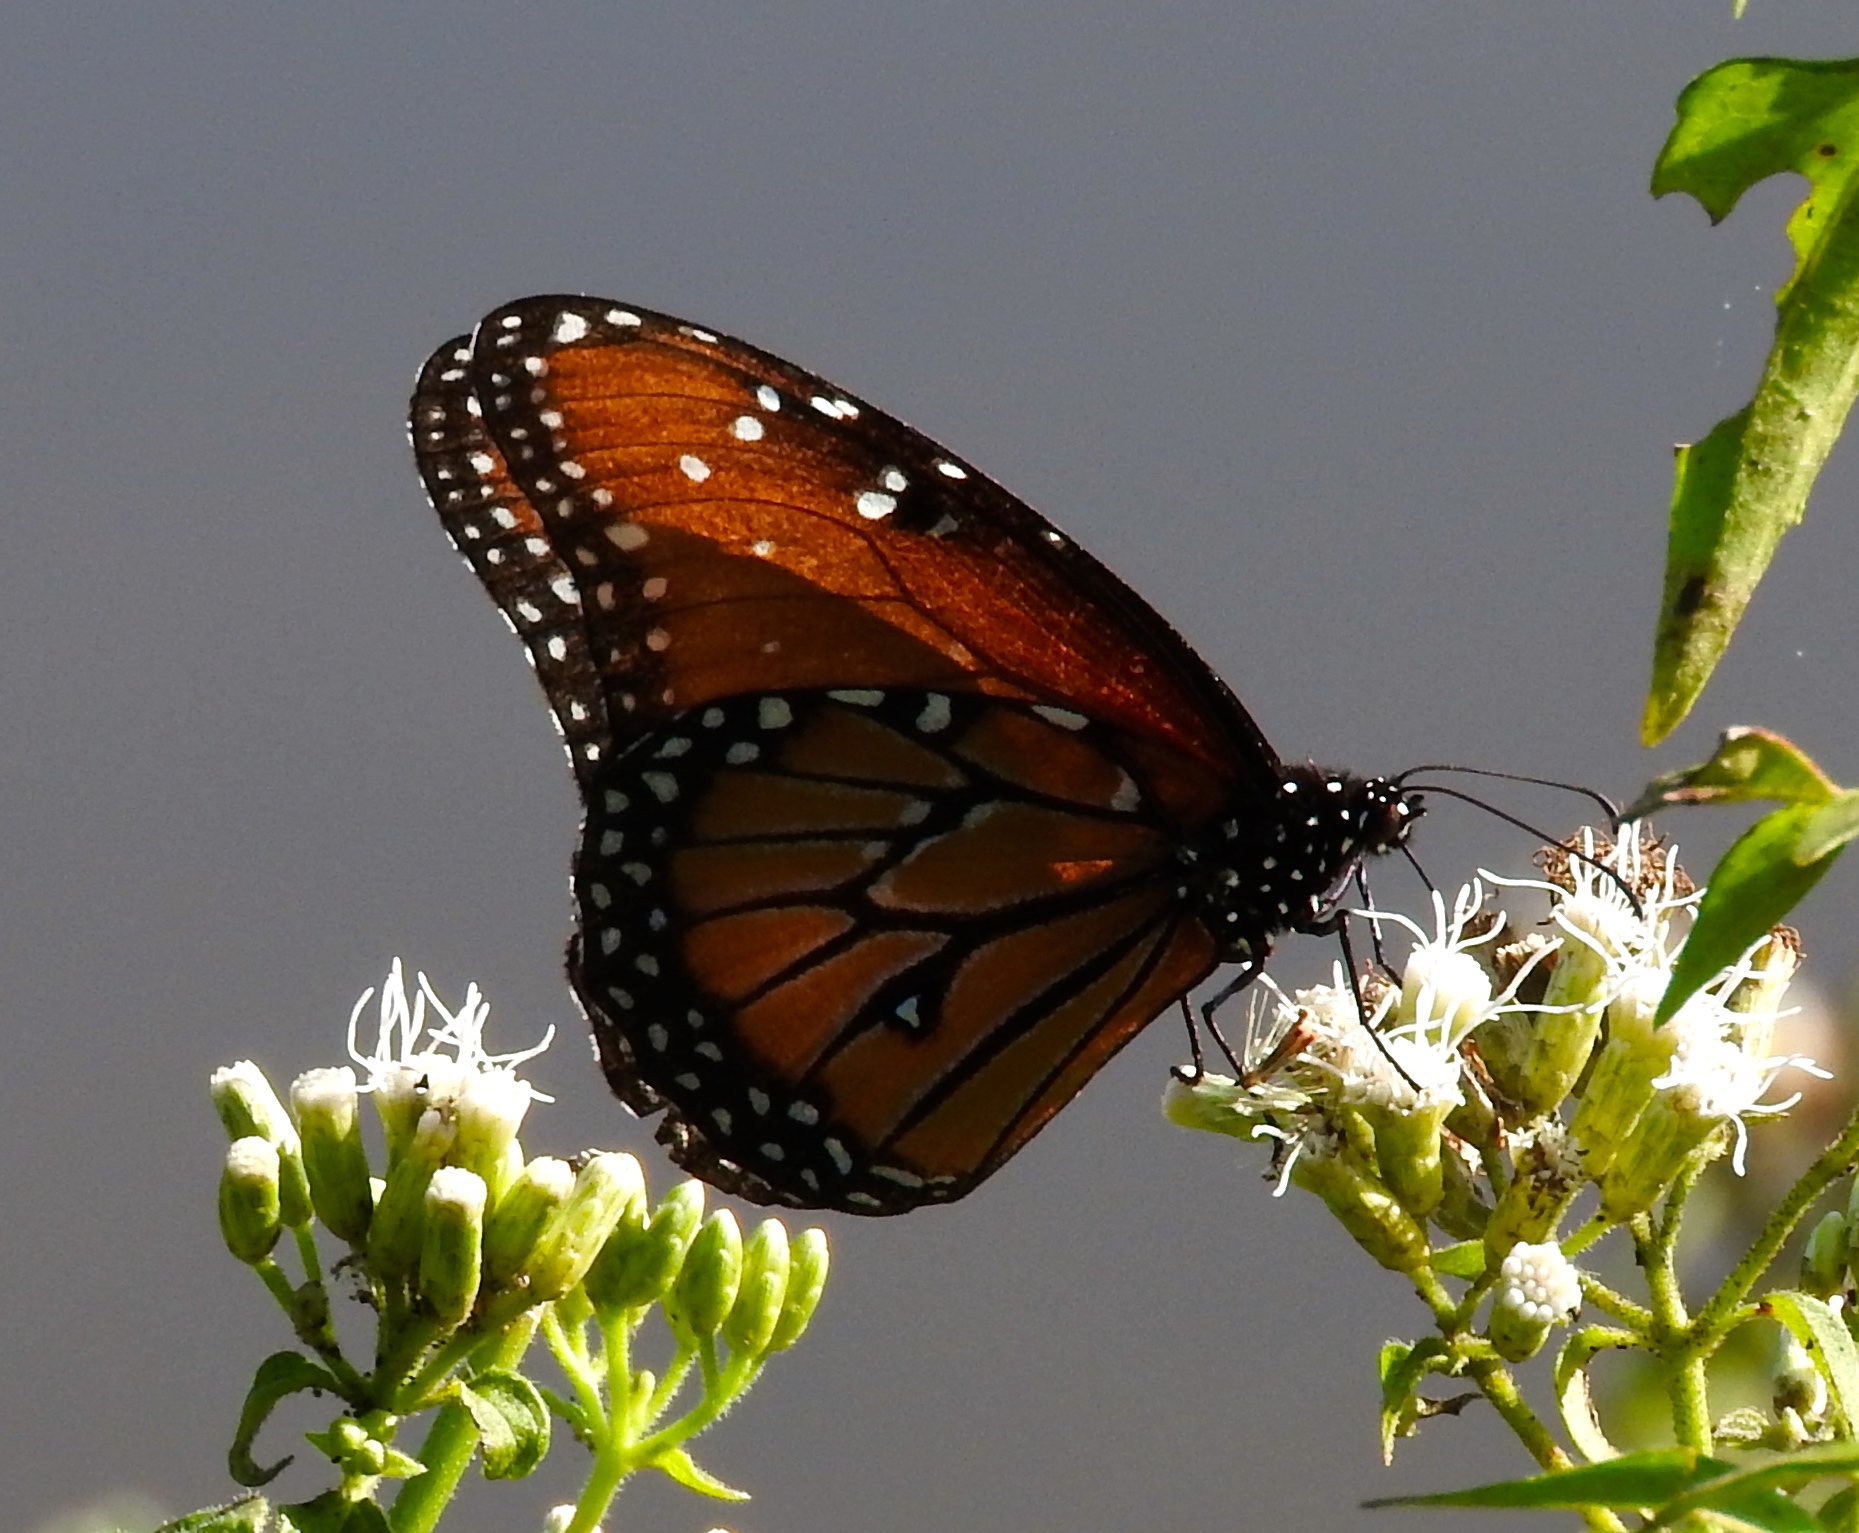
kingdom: Animalia
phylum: Arthropoda
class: Insecta
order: Lepidoptera
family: Nymphalidae
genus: Danaus
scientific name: Danaus gilippus
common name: Queen
